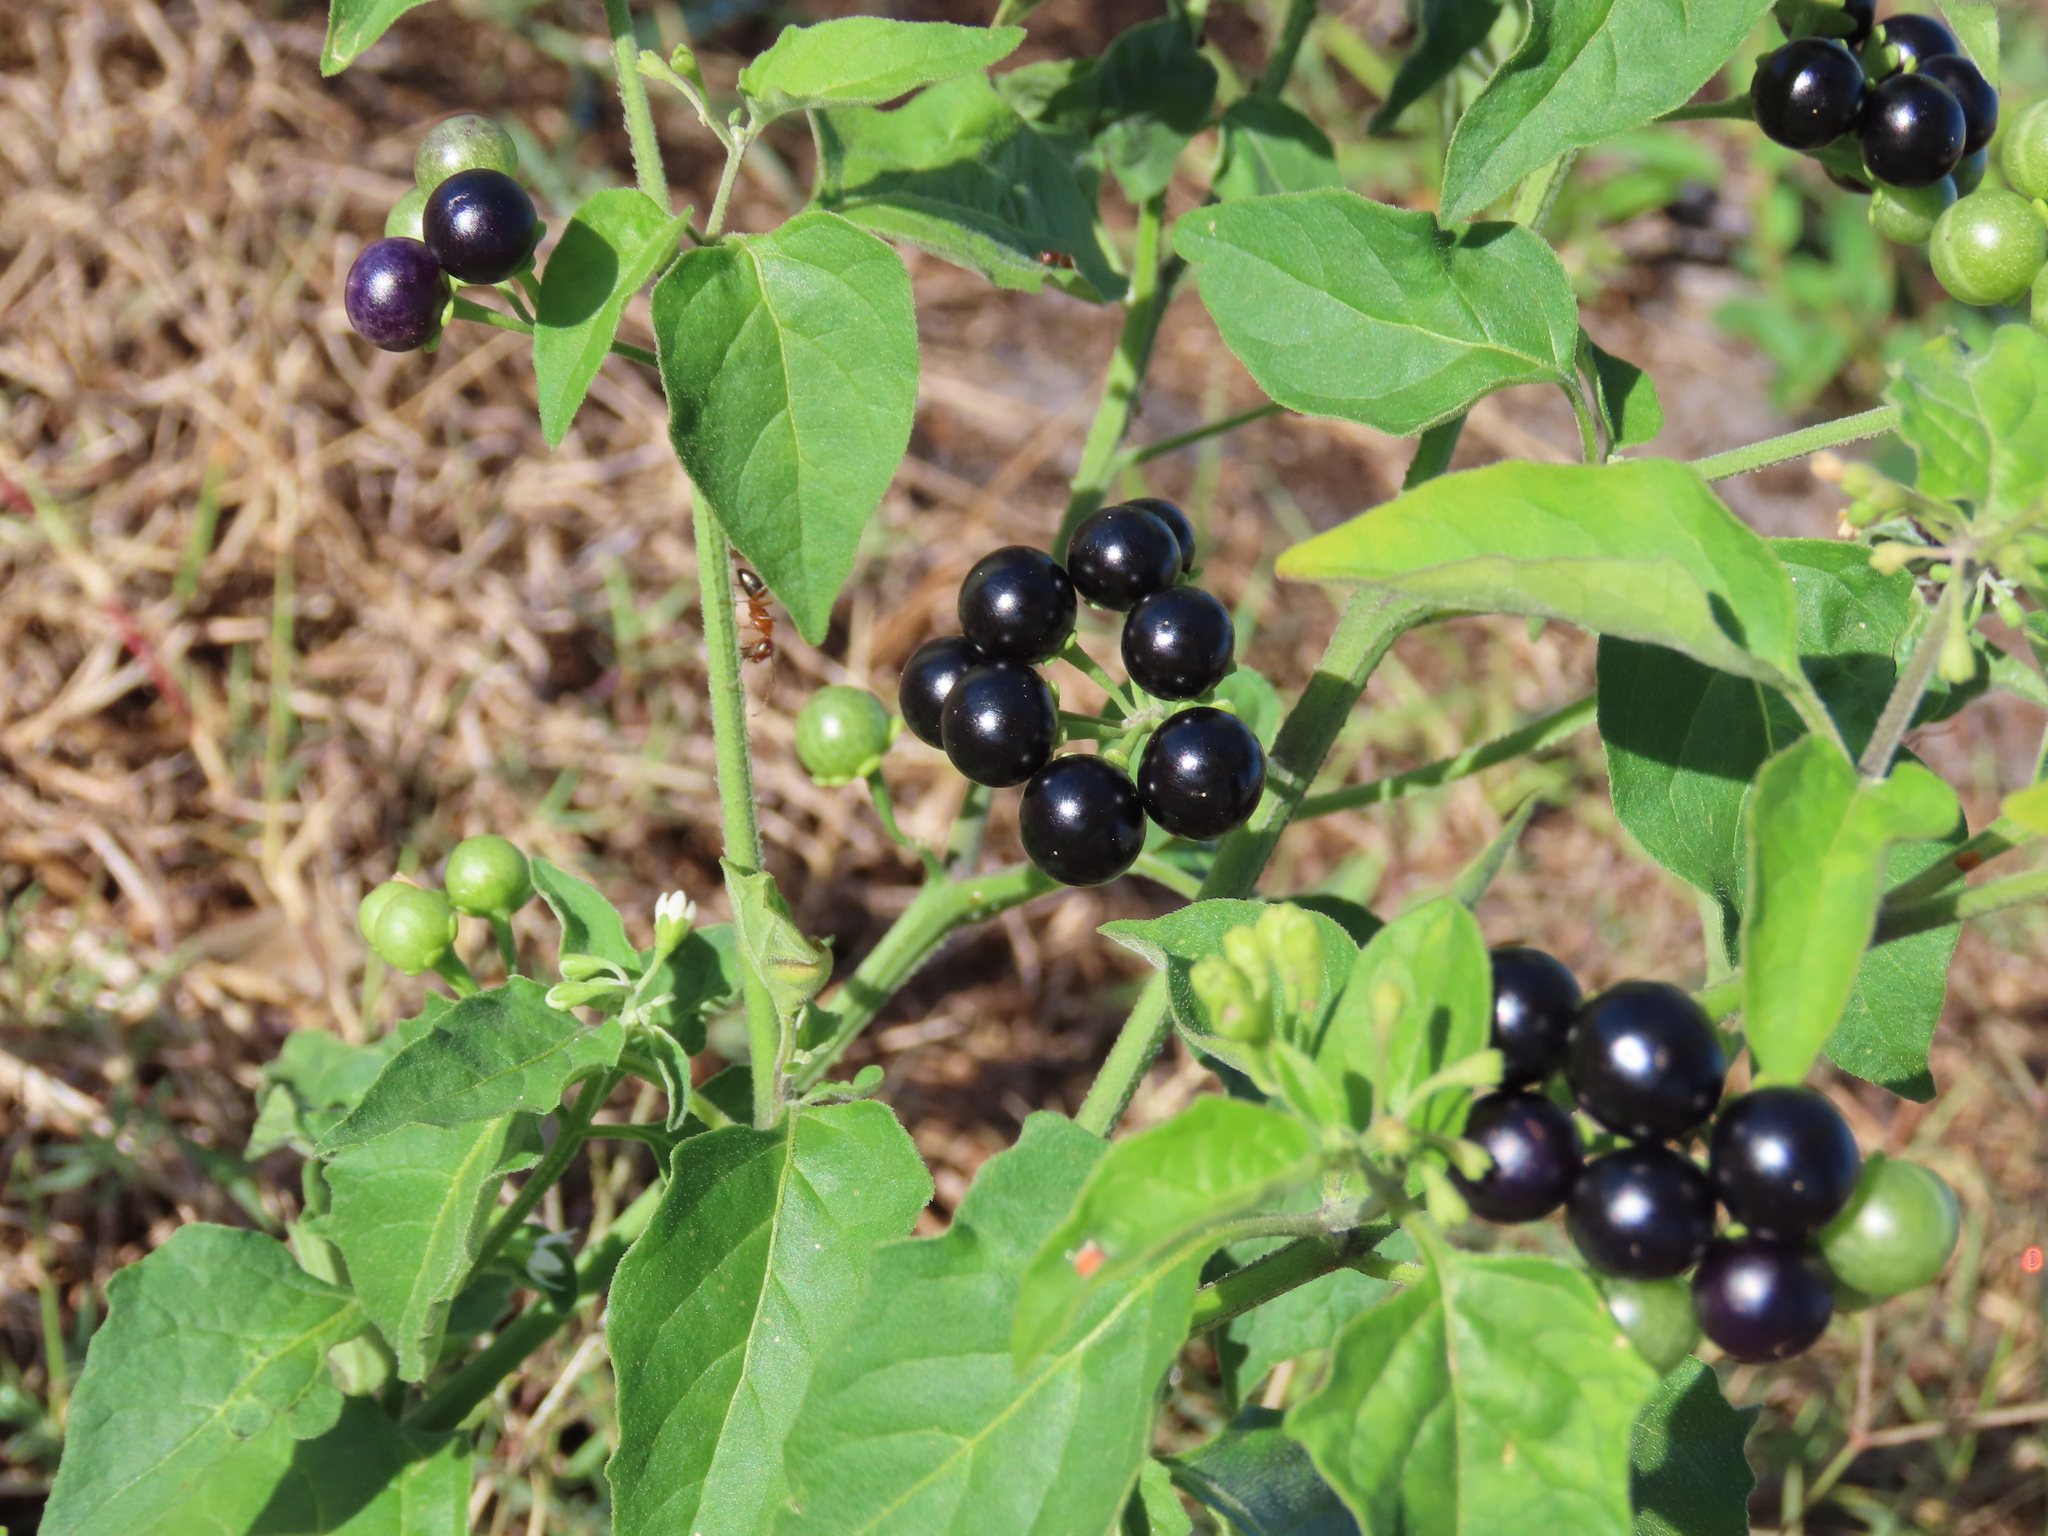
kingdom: Plantae
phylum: Tracheophyta
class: Magnoliopsida
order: Solanales
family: Solanaceae
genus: Solanum
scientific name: Solanum americanum
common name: American black nightshade
